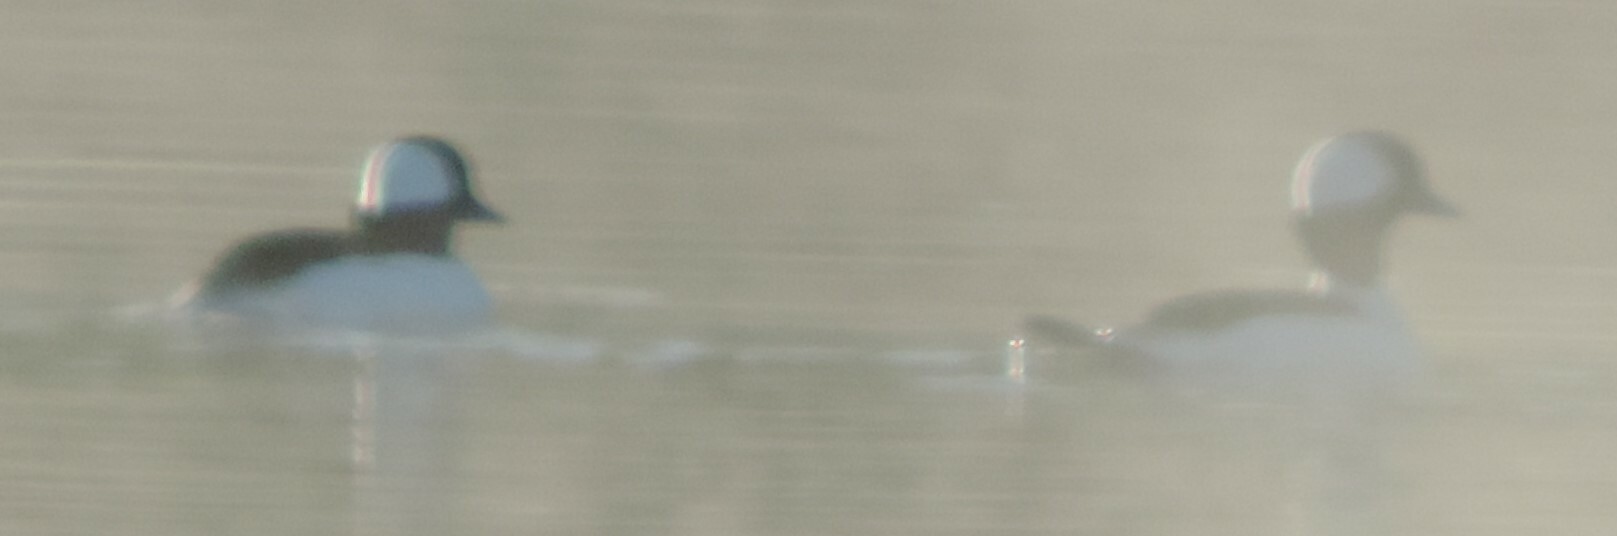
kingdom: Animalia
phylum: Chordata
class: Aves
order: Anseriformes
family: Anatidae
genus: Bucephala
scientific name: Bucephala albeola
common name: Bufflehead
